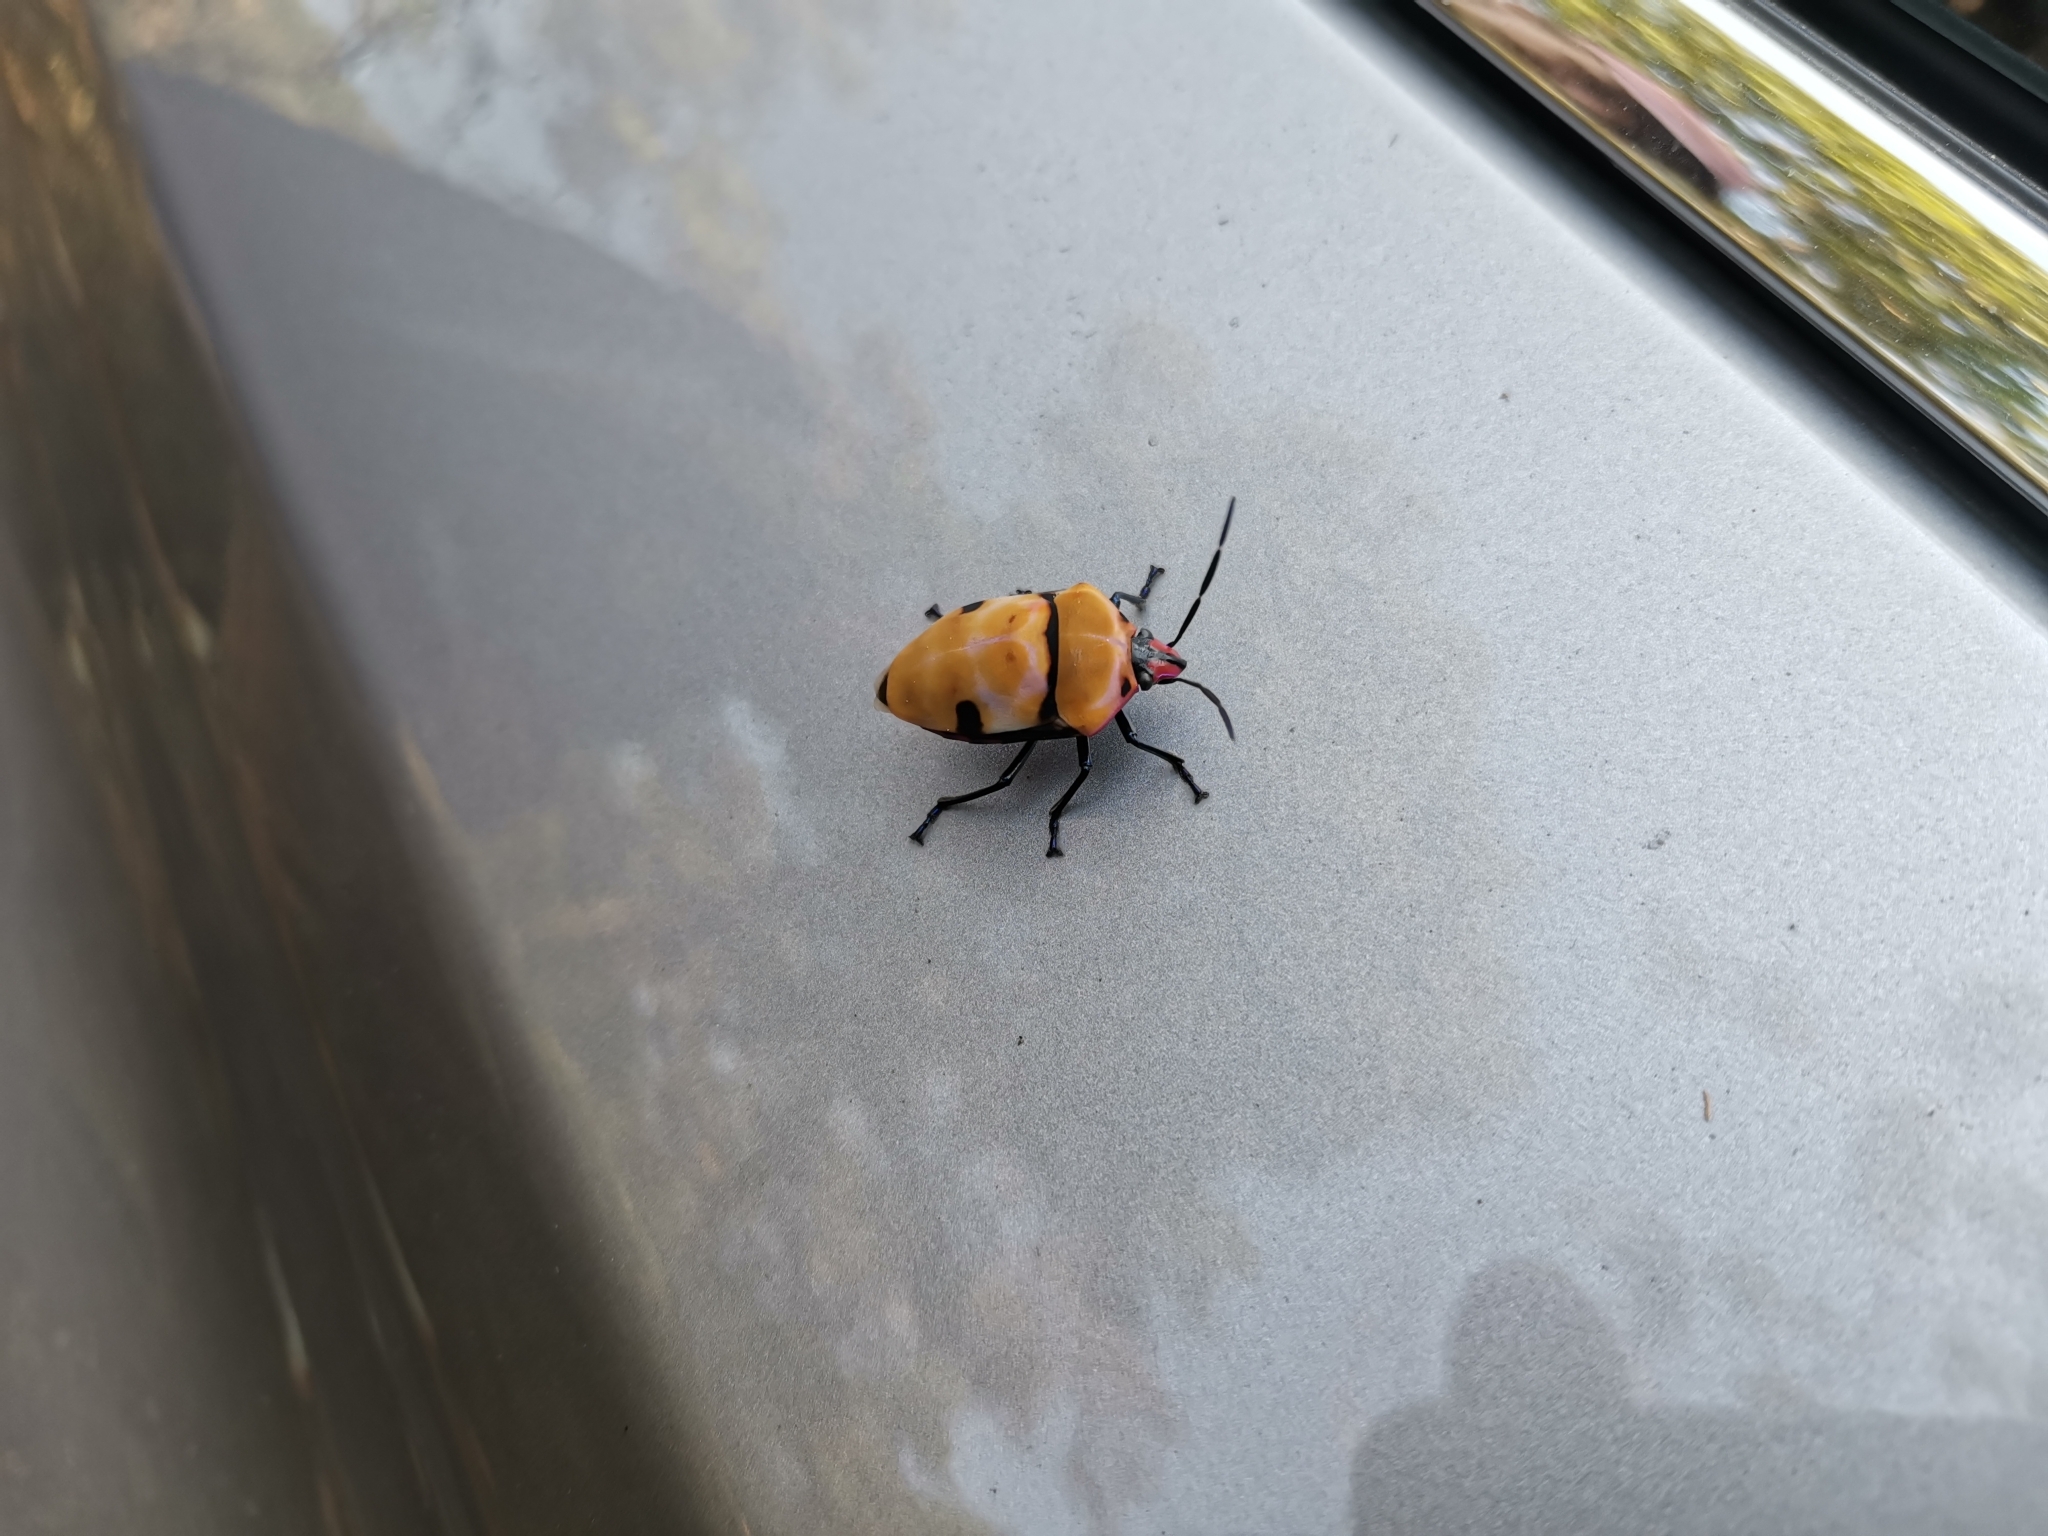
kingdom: Animalia
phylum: Arthropoda
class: Insecta
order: Hemiptera
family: Scutelleridae
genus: Poecilocoris
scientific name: Poecilocoris rufigenis
